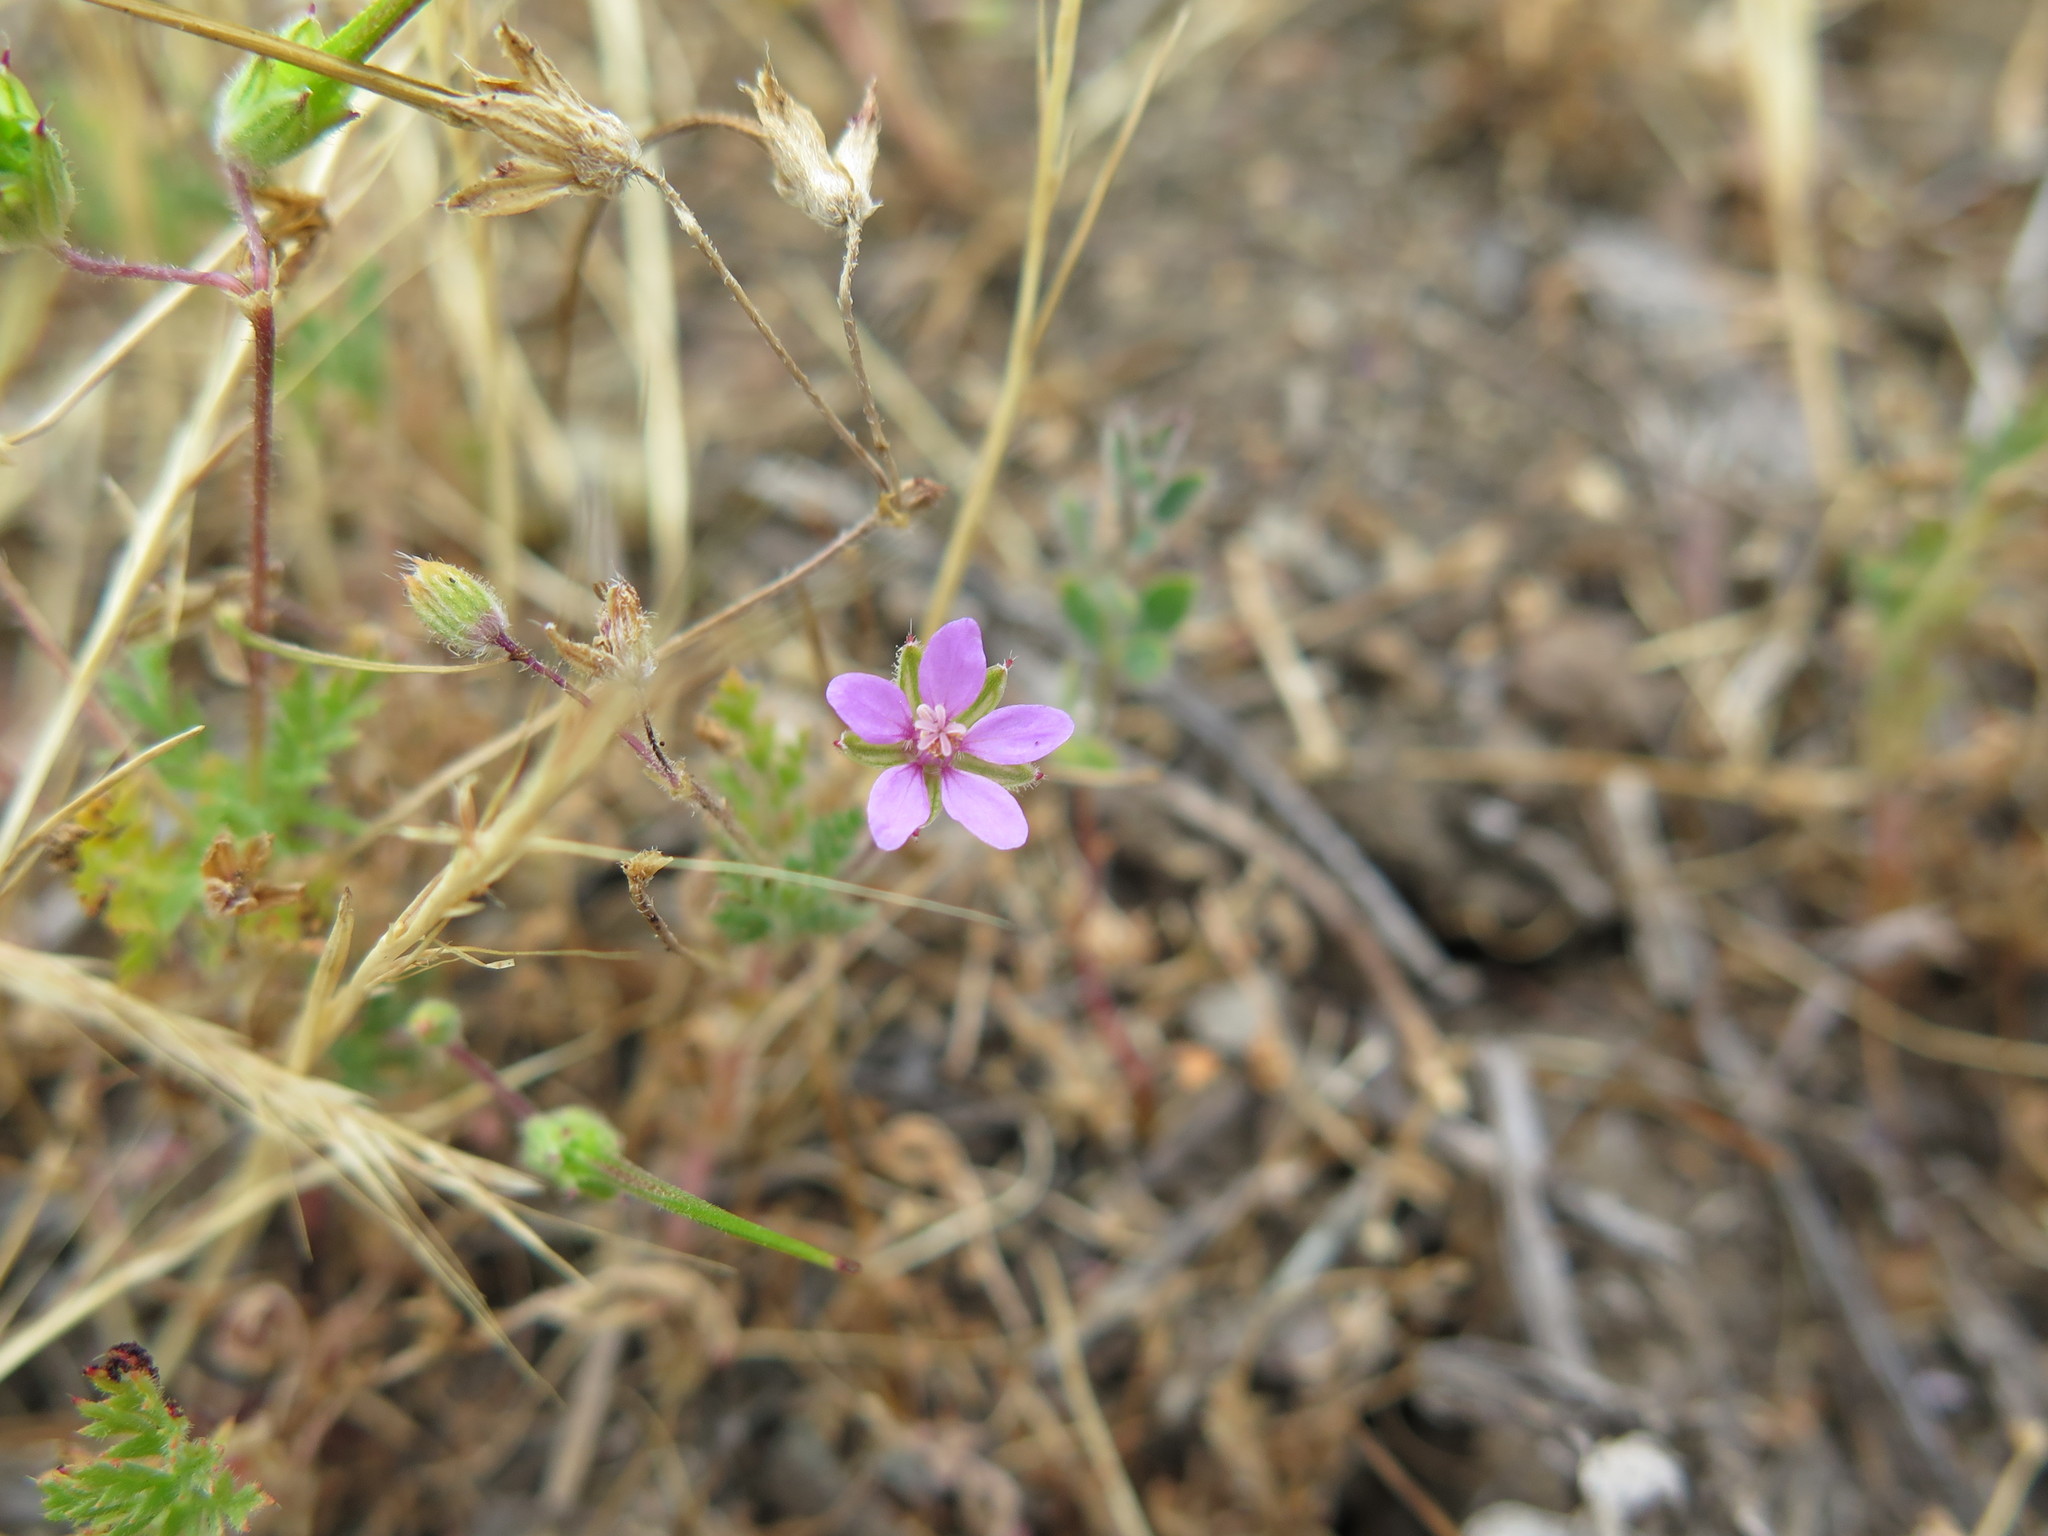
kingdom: Plantae
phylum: Tracheophyta
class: Magnoliopsida
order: Geraniales
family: Geraniaceae
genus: Erodium
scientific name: Erodium cicutarium
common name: Common stork's-bill
